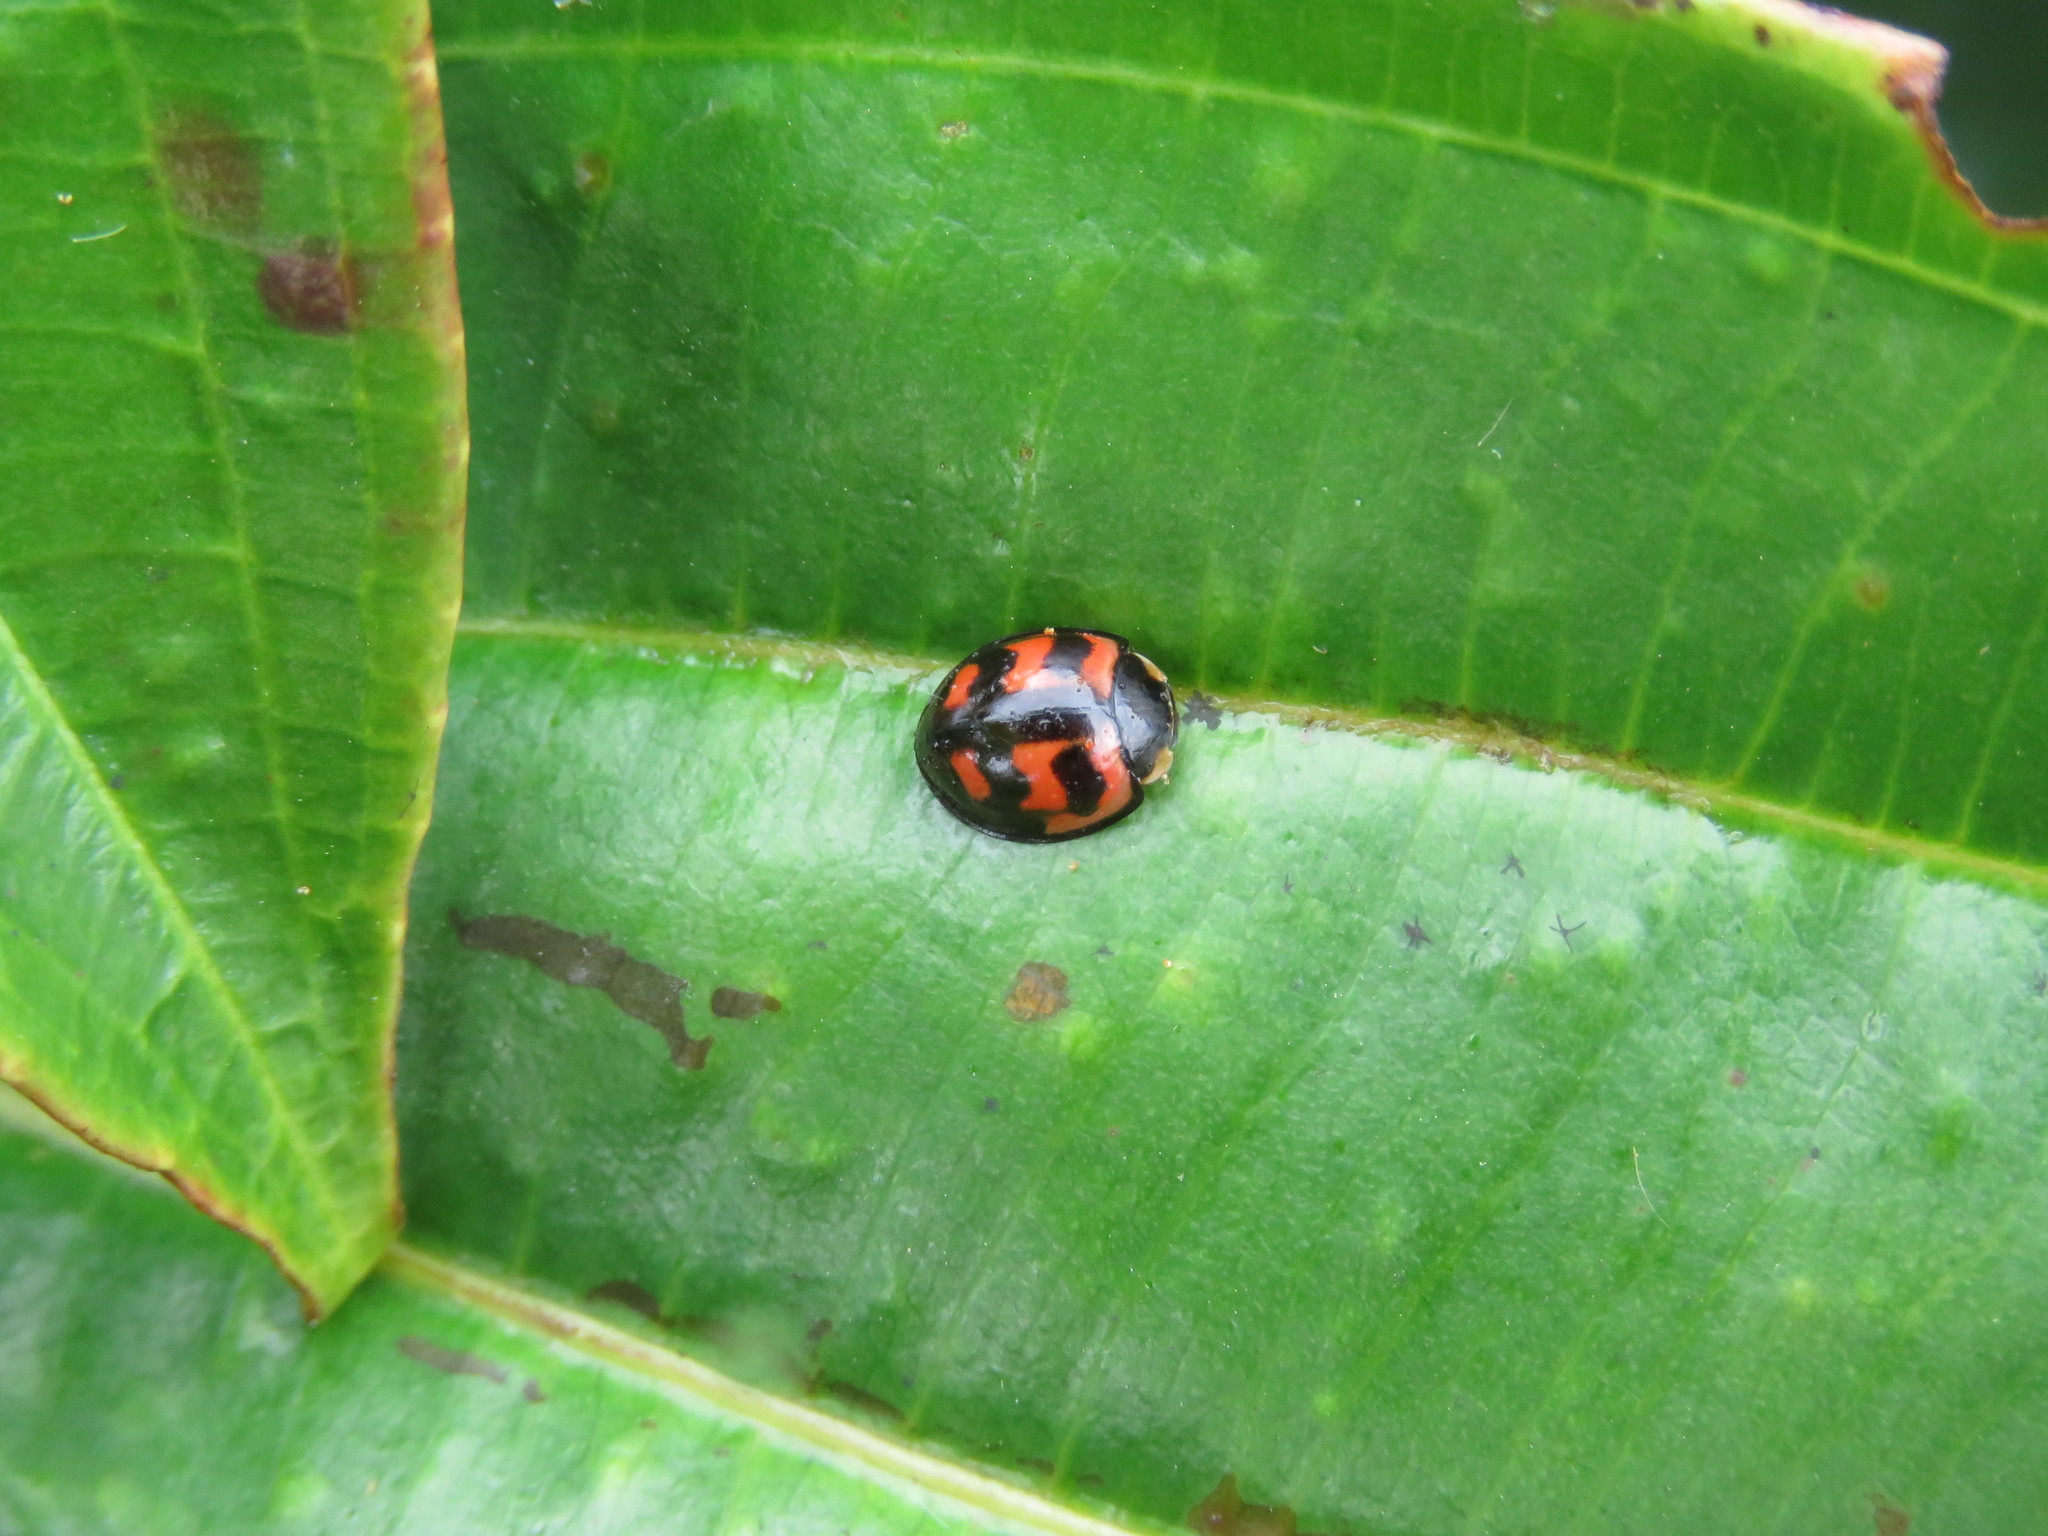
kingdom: Animalia
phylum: Arthropoda
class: Insecta
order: Coleoptera
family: Coccinellidae
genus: Cheilomenes
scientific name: Cheilomenes sexmaculata
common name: Ladybird beetle
